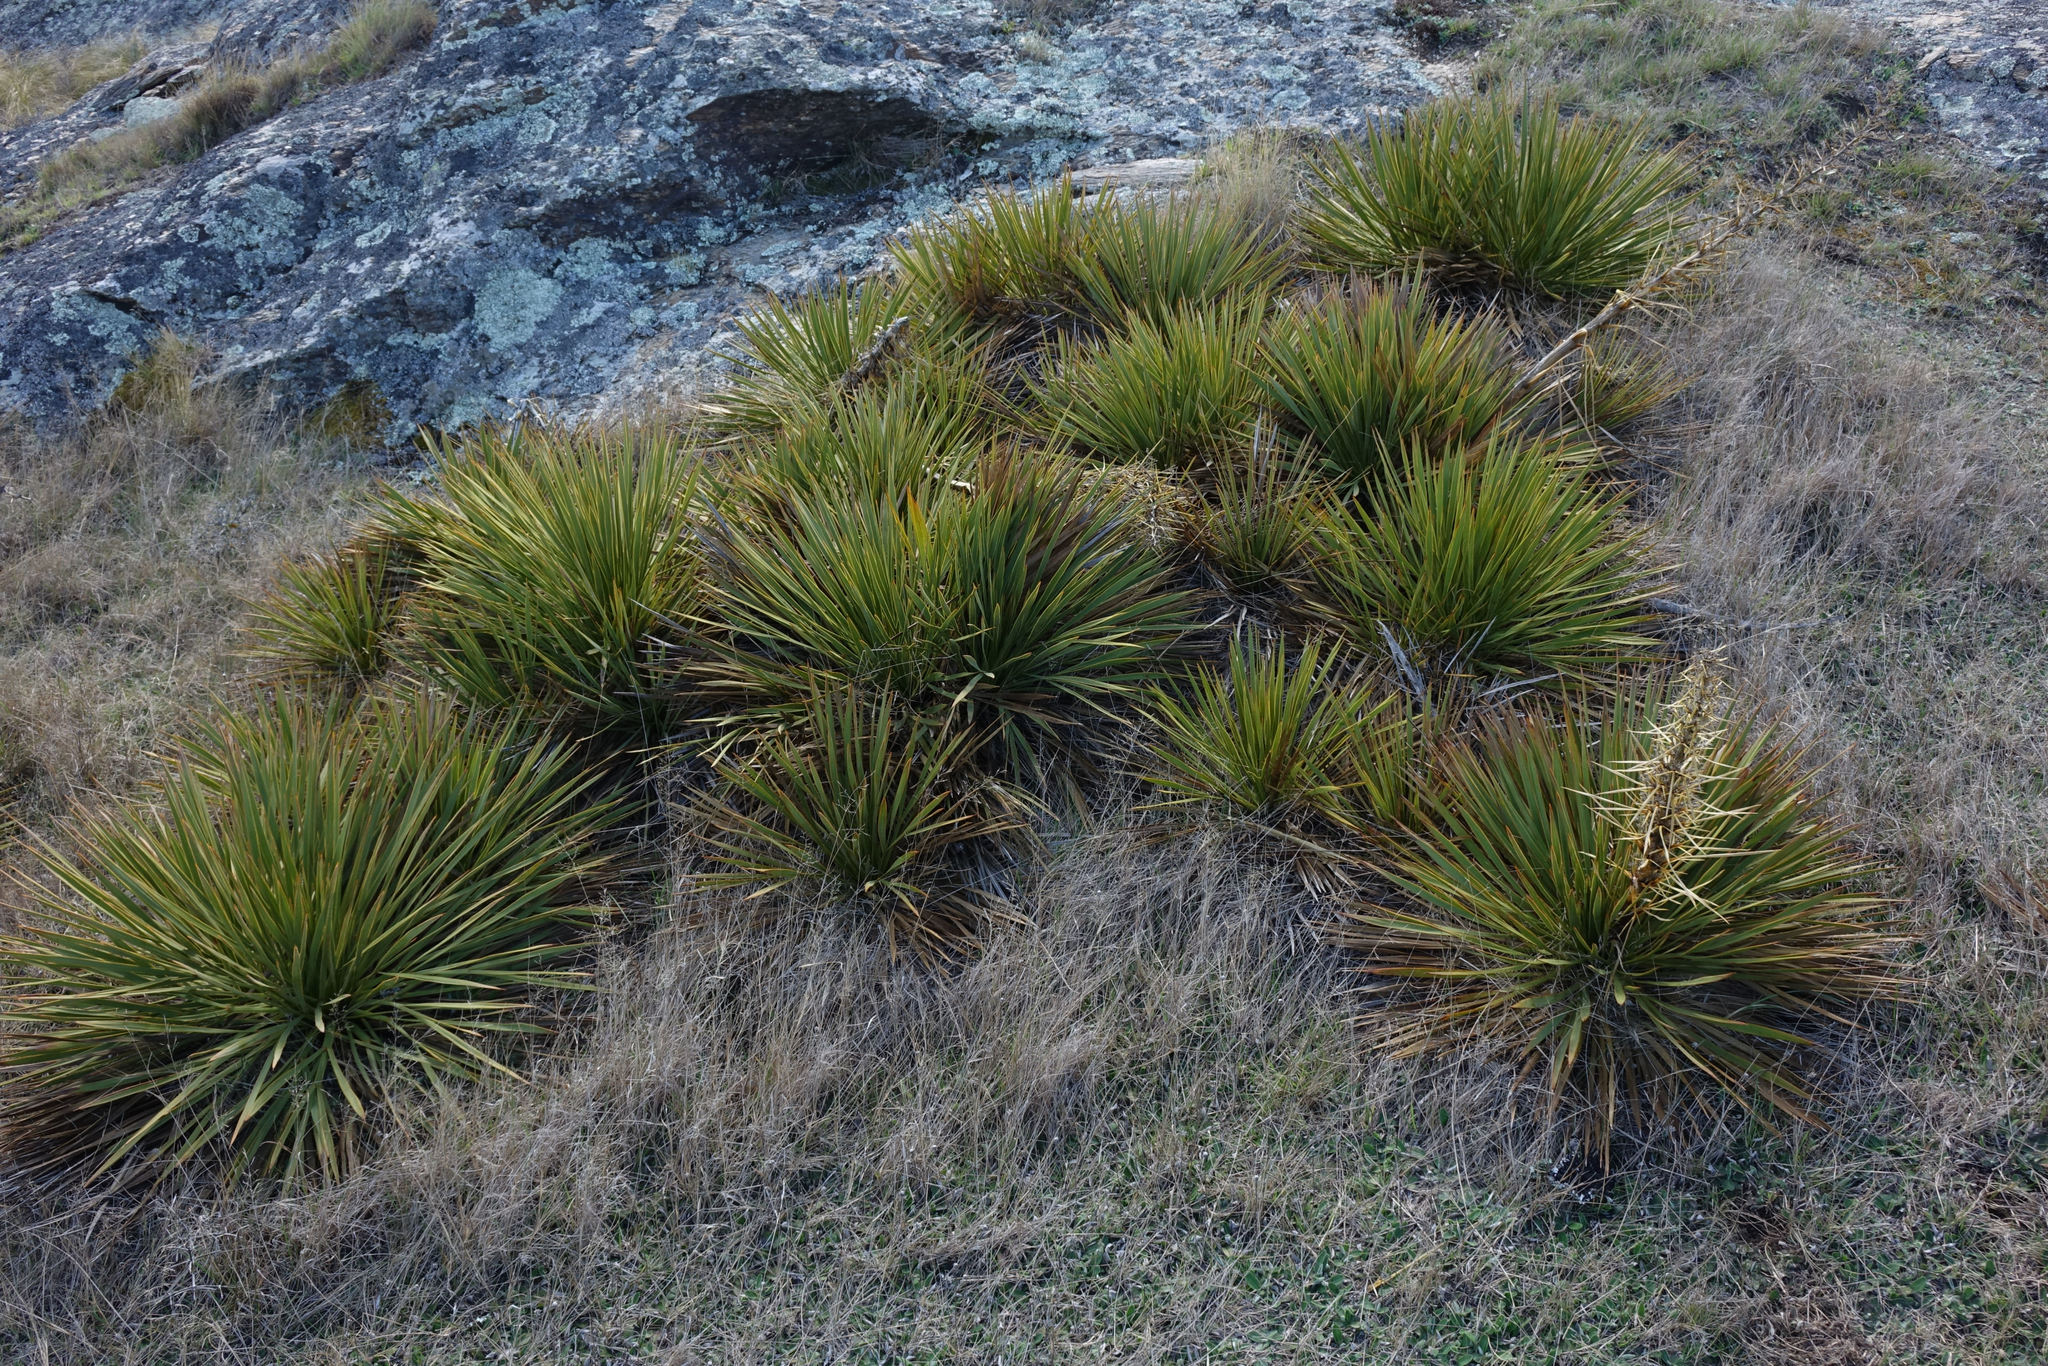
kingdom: Plantae
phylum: Tracheophyta
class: Magnoliopsida
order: Apiales
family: Apiaceae
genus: Aciphylla
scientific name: Aciphylla aurea
